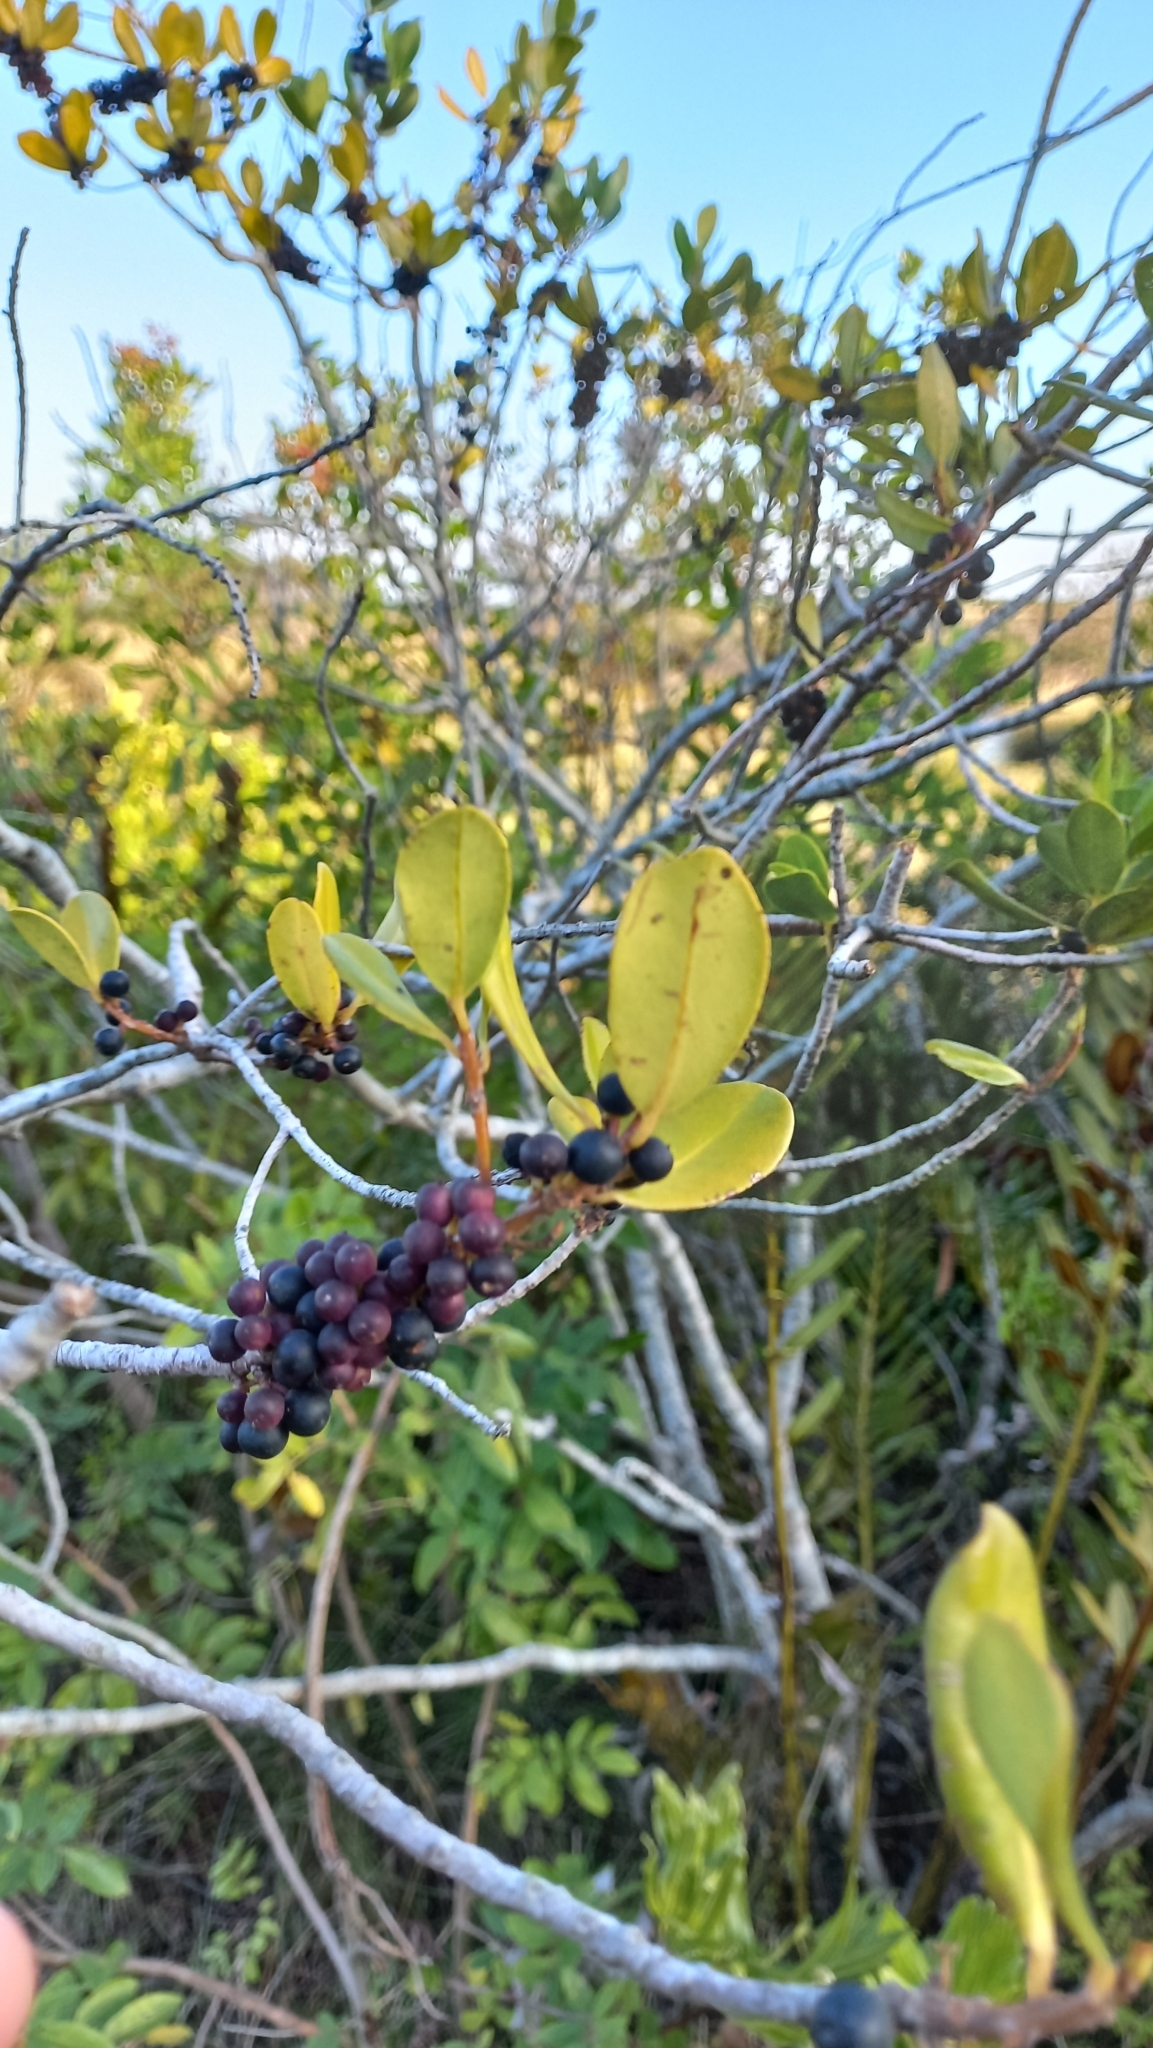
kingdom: Plantae
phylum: Tracheophyta
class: Magnoliopsida
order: Ericales
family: Primulaceae
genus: Myrsine
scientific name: Myrsine parvifolia
